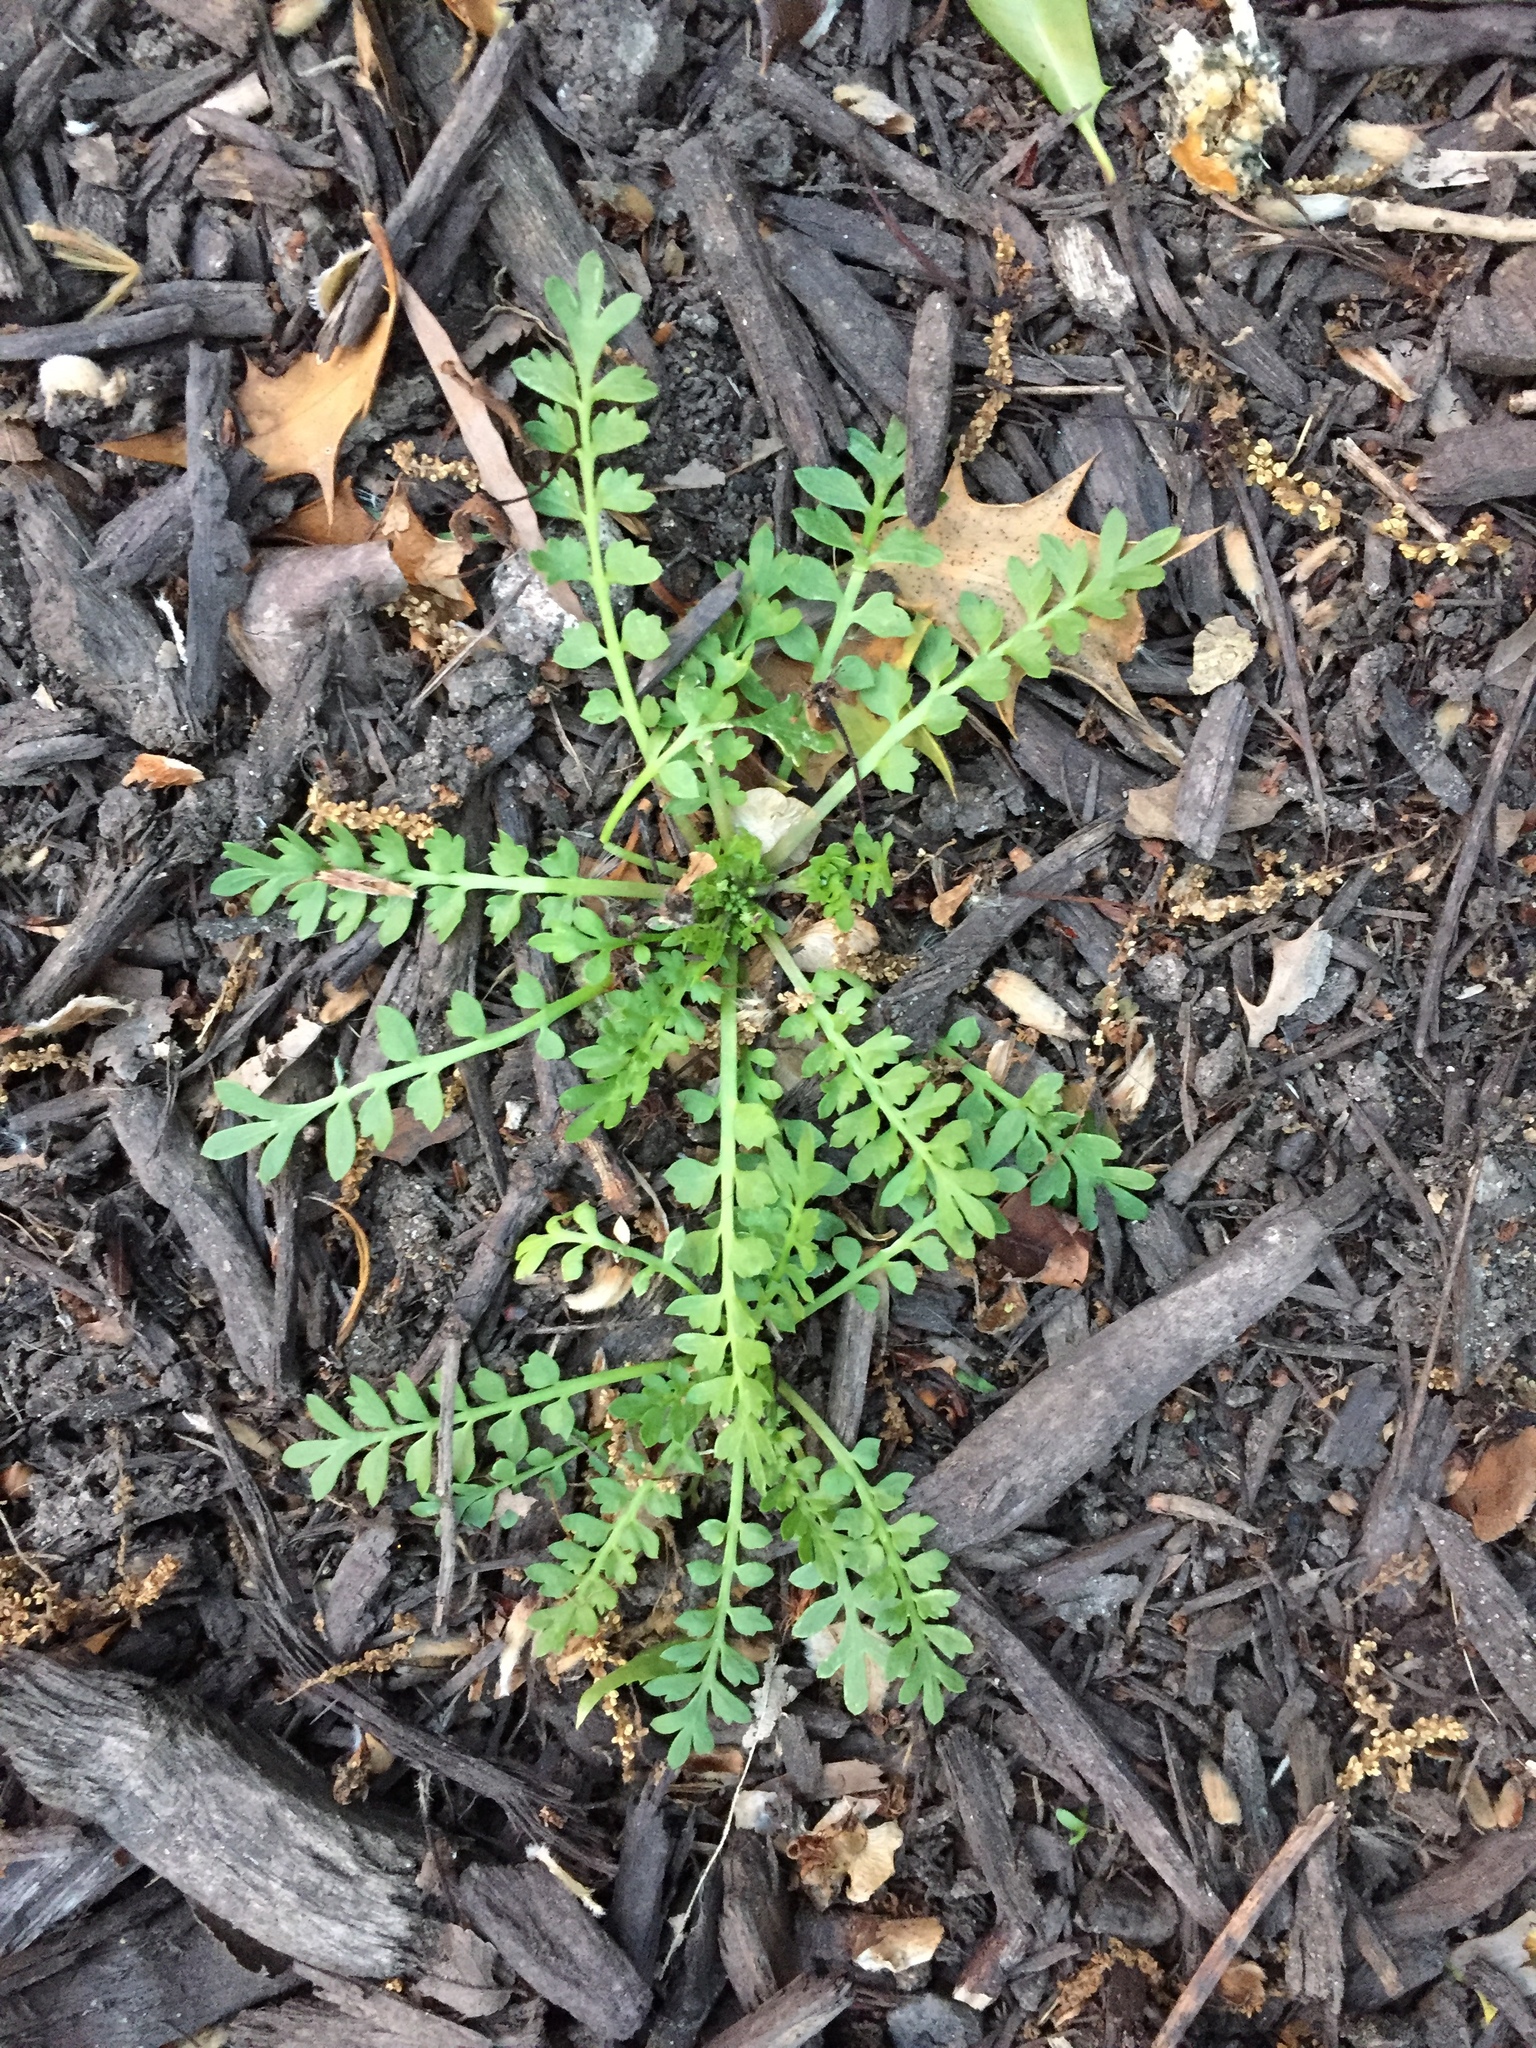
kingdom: Plantae
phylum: Tracheophyta
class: Magnoliopsida
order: Brassicales
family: Brassicaceae
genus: Lepidium
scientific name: Lepidium didymum
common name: Lesser swinecress
